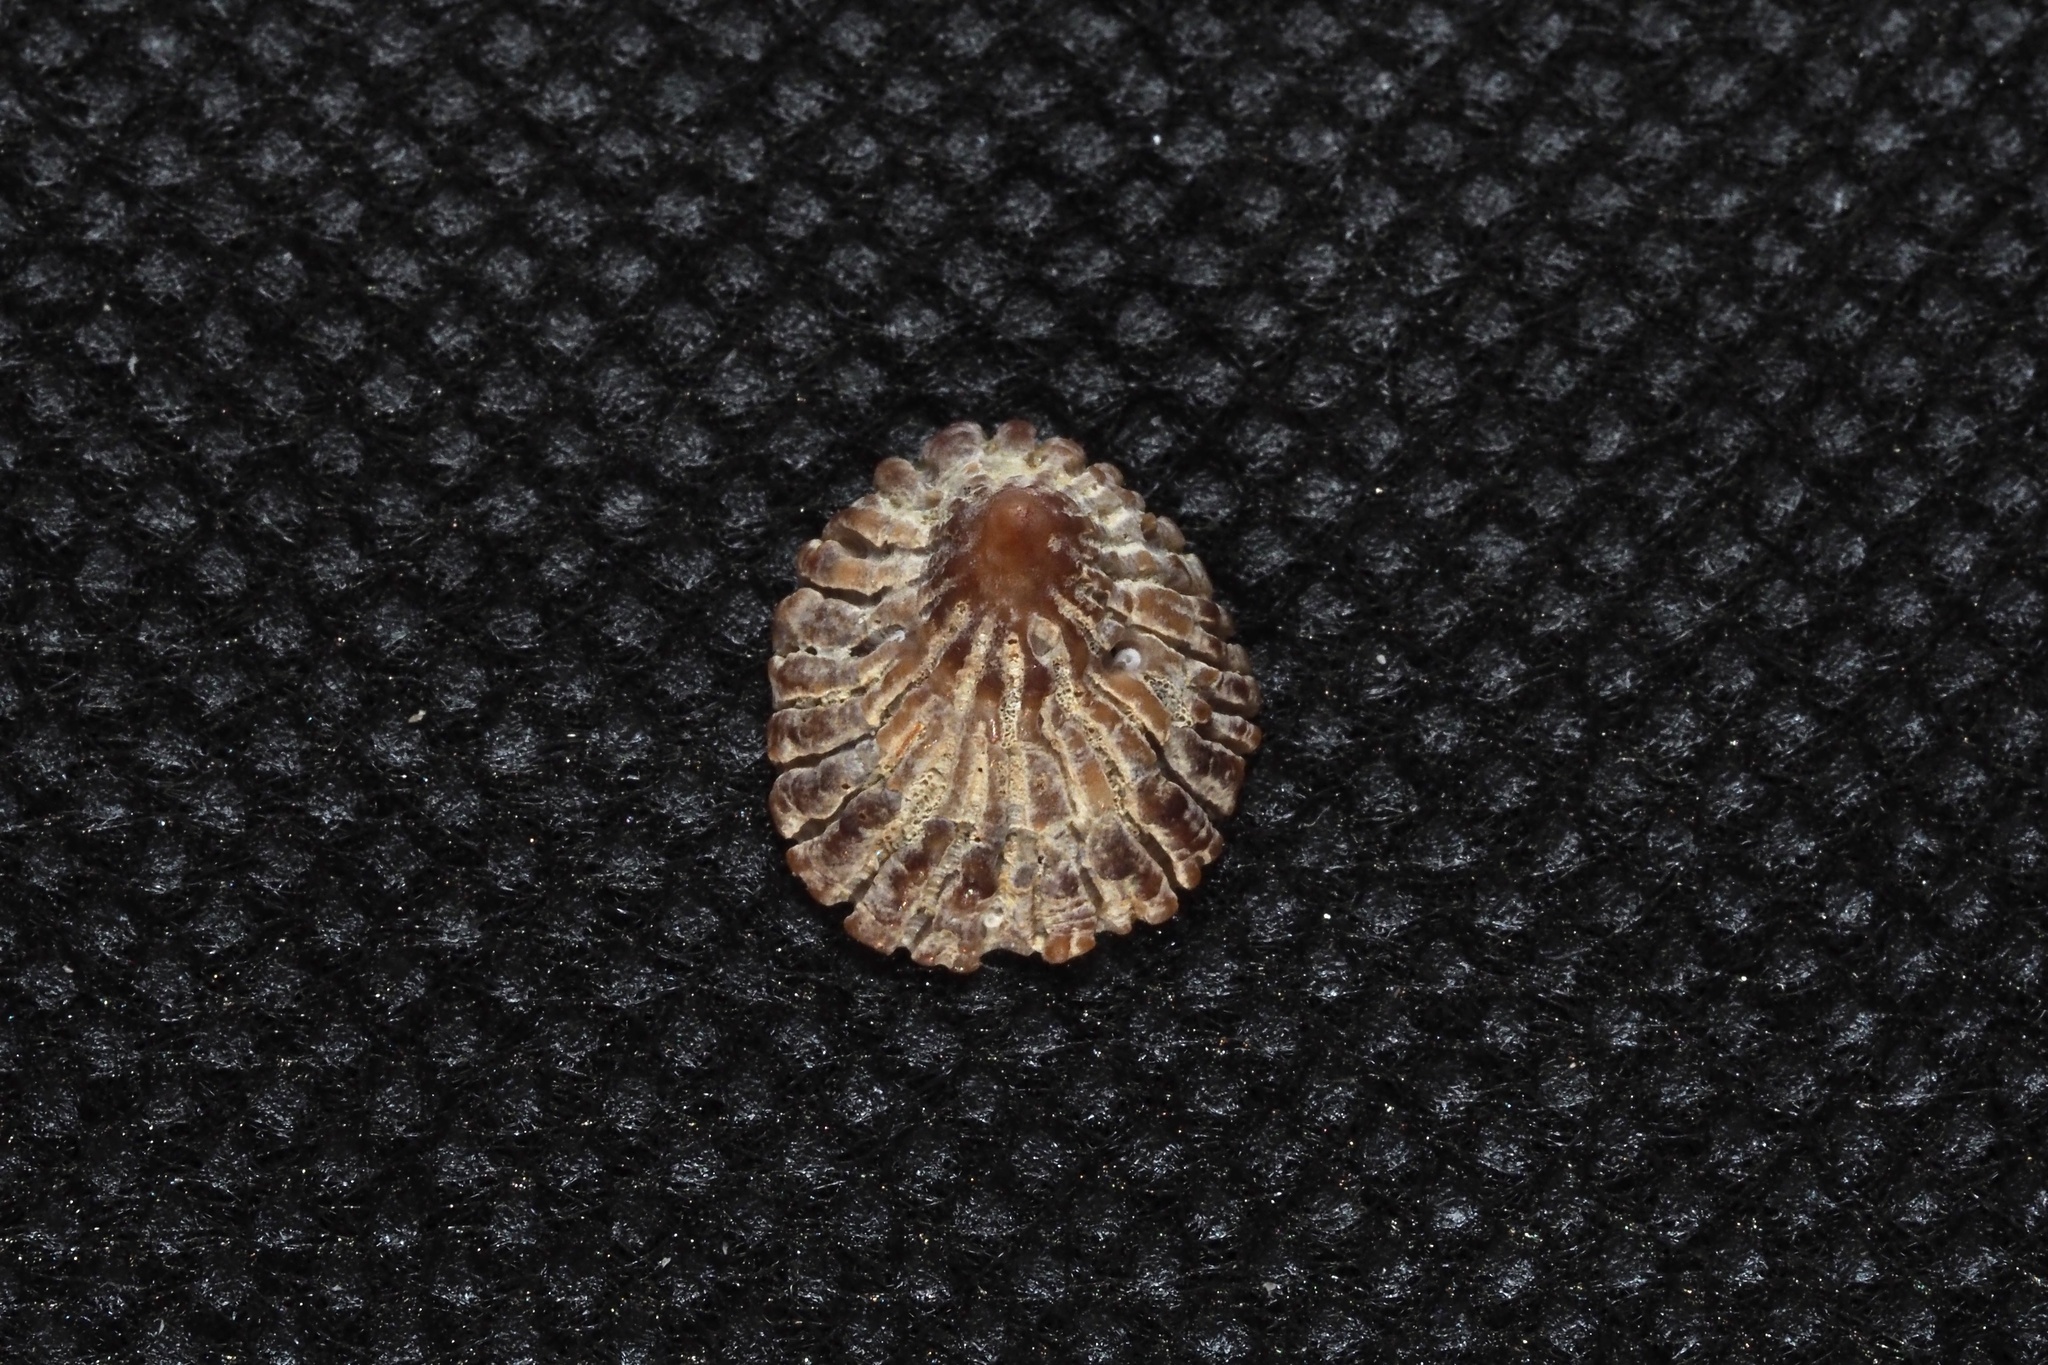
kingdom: Animalia
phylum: Mollusca
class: Gastropoda
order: Littorinimorpha
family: Hipponicidae
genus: Sabia
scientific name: Sabia conica
